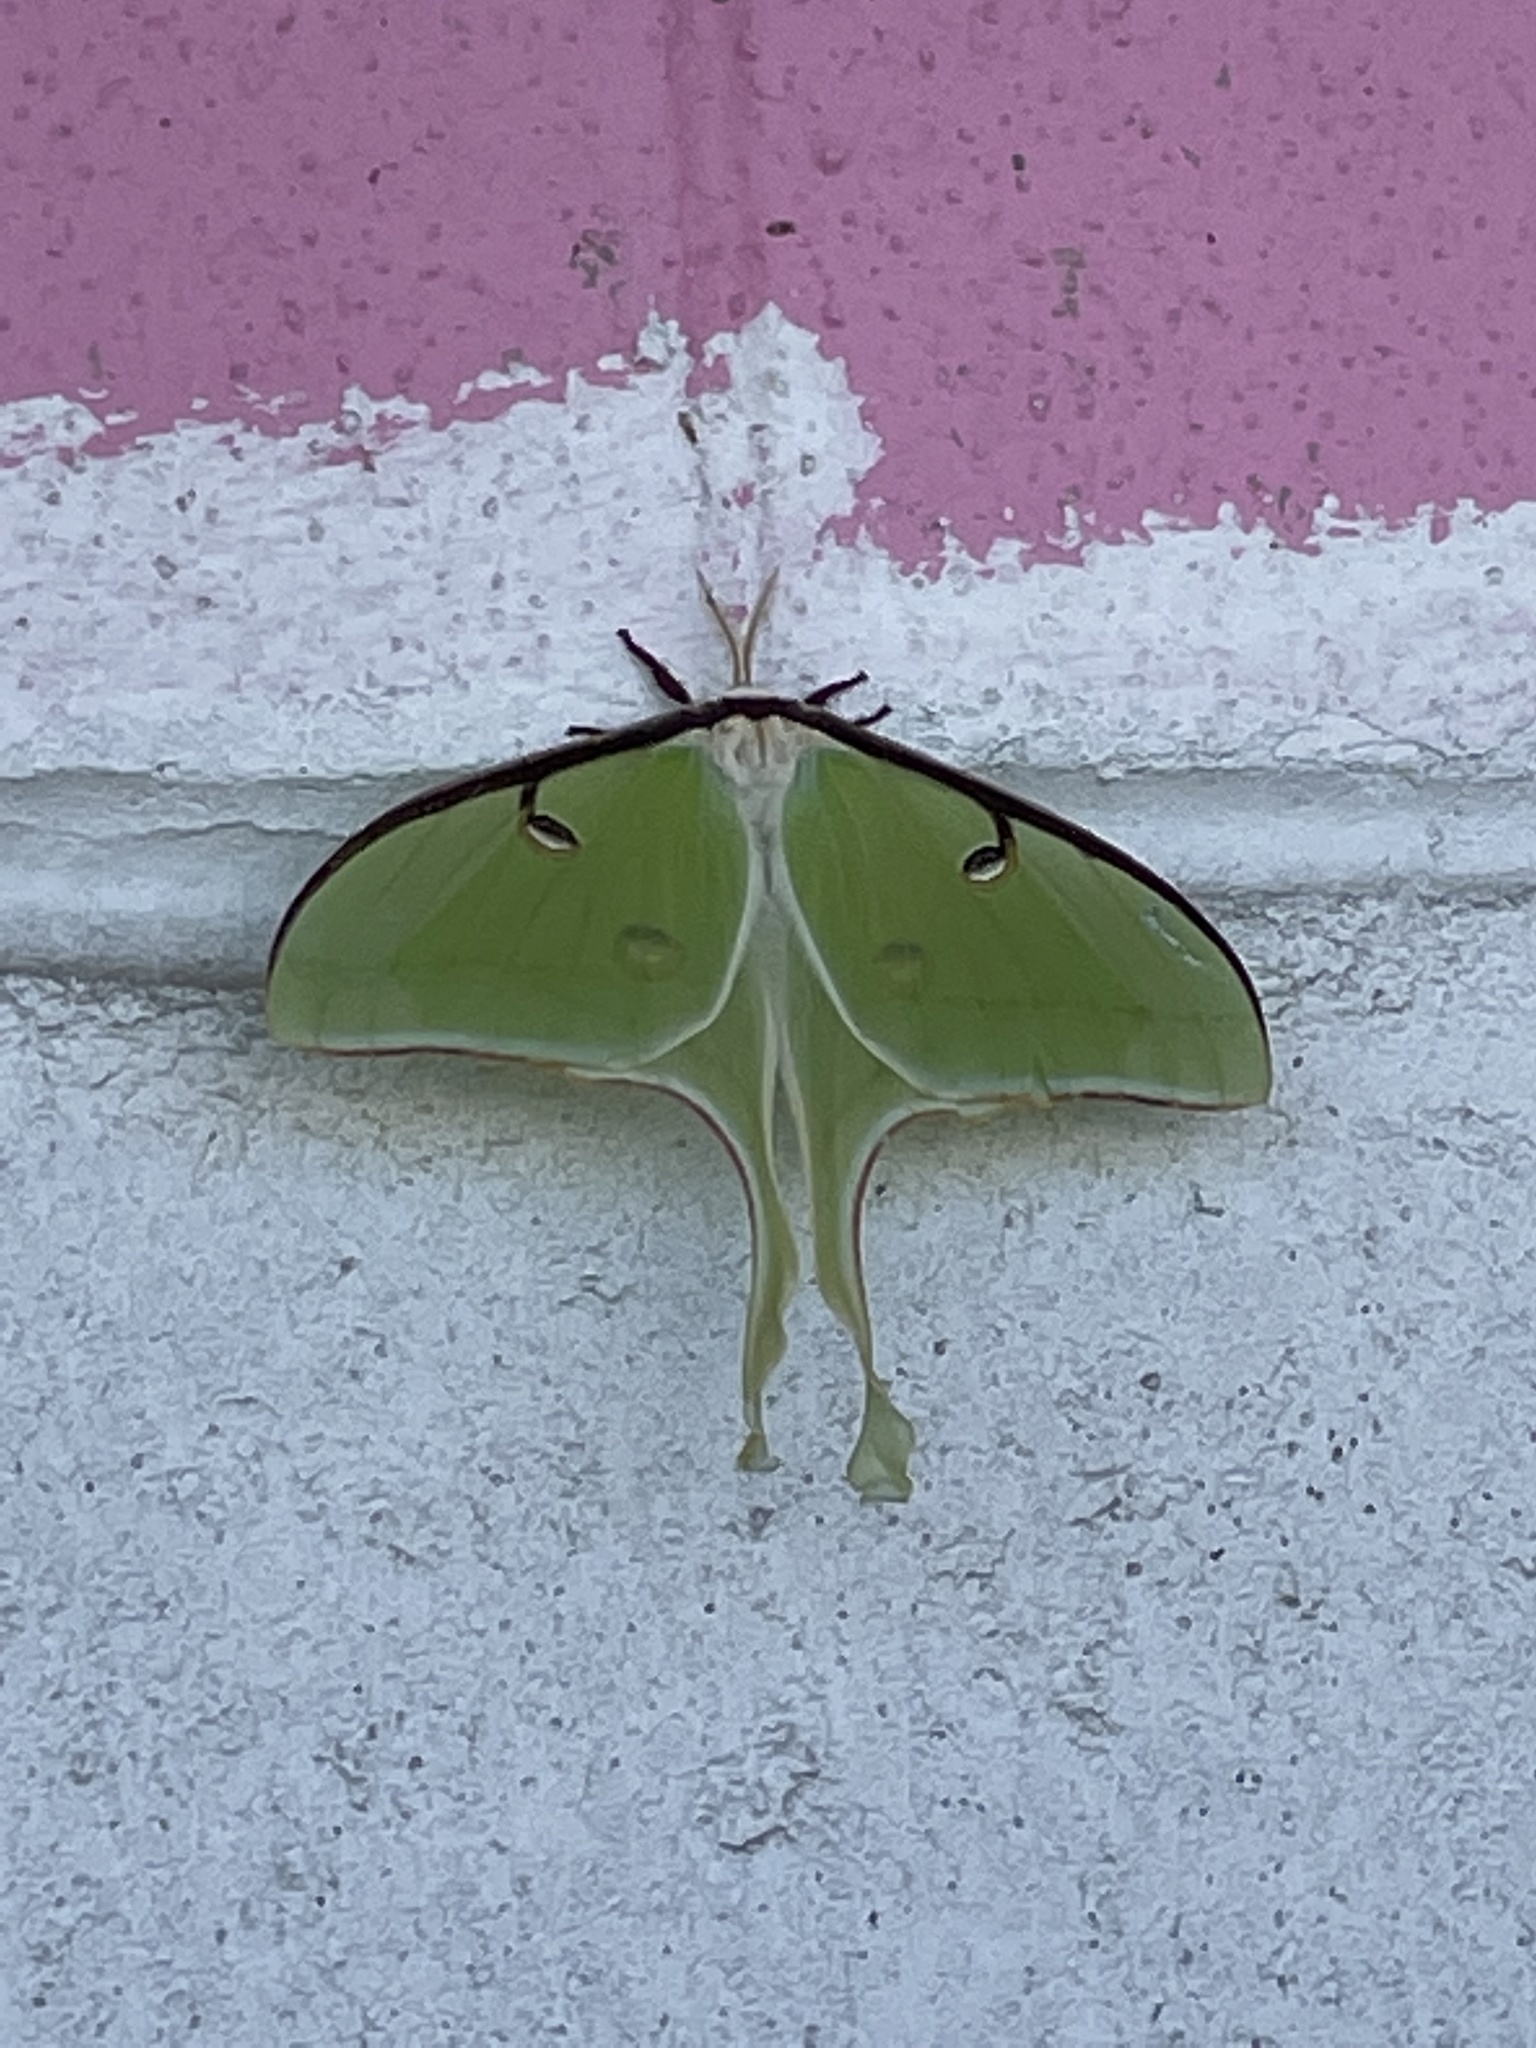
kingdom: Animalia
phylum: Arthropoda
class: Insecta
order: Lepidoptera
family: Saturniidae
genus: Actias
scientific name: Actias luna
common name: Luna moth
